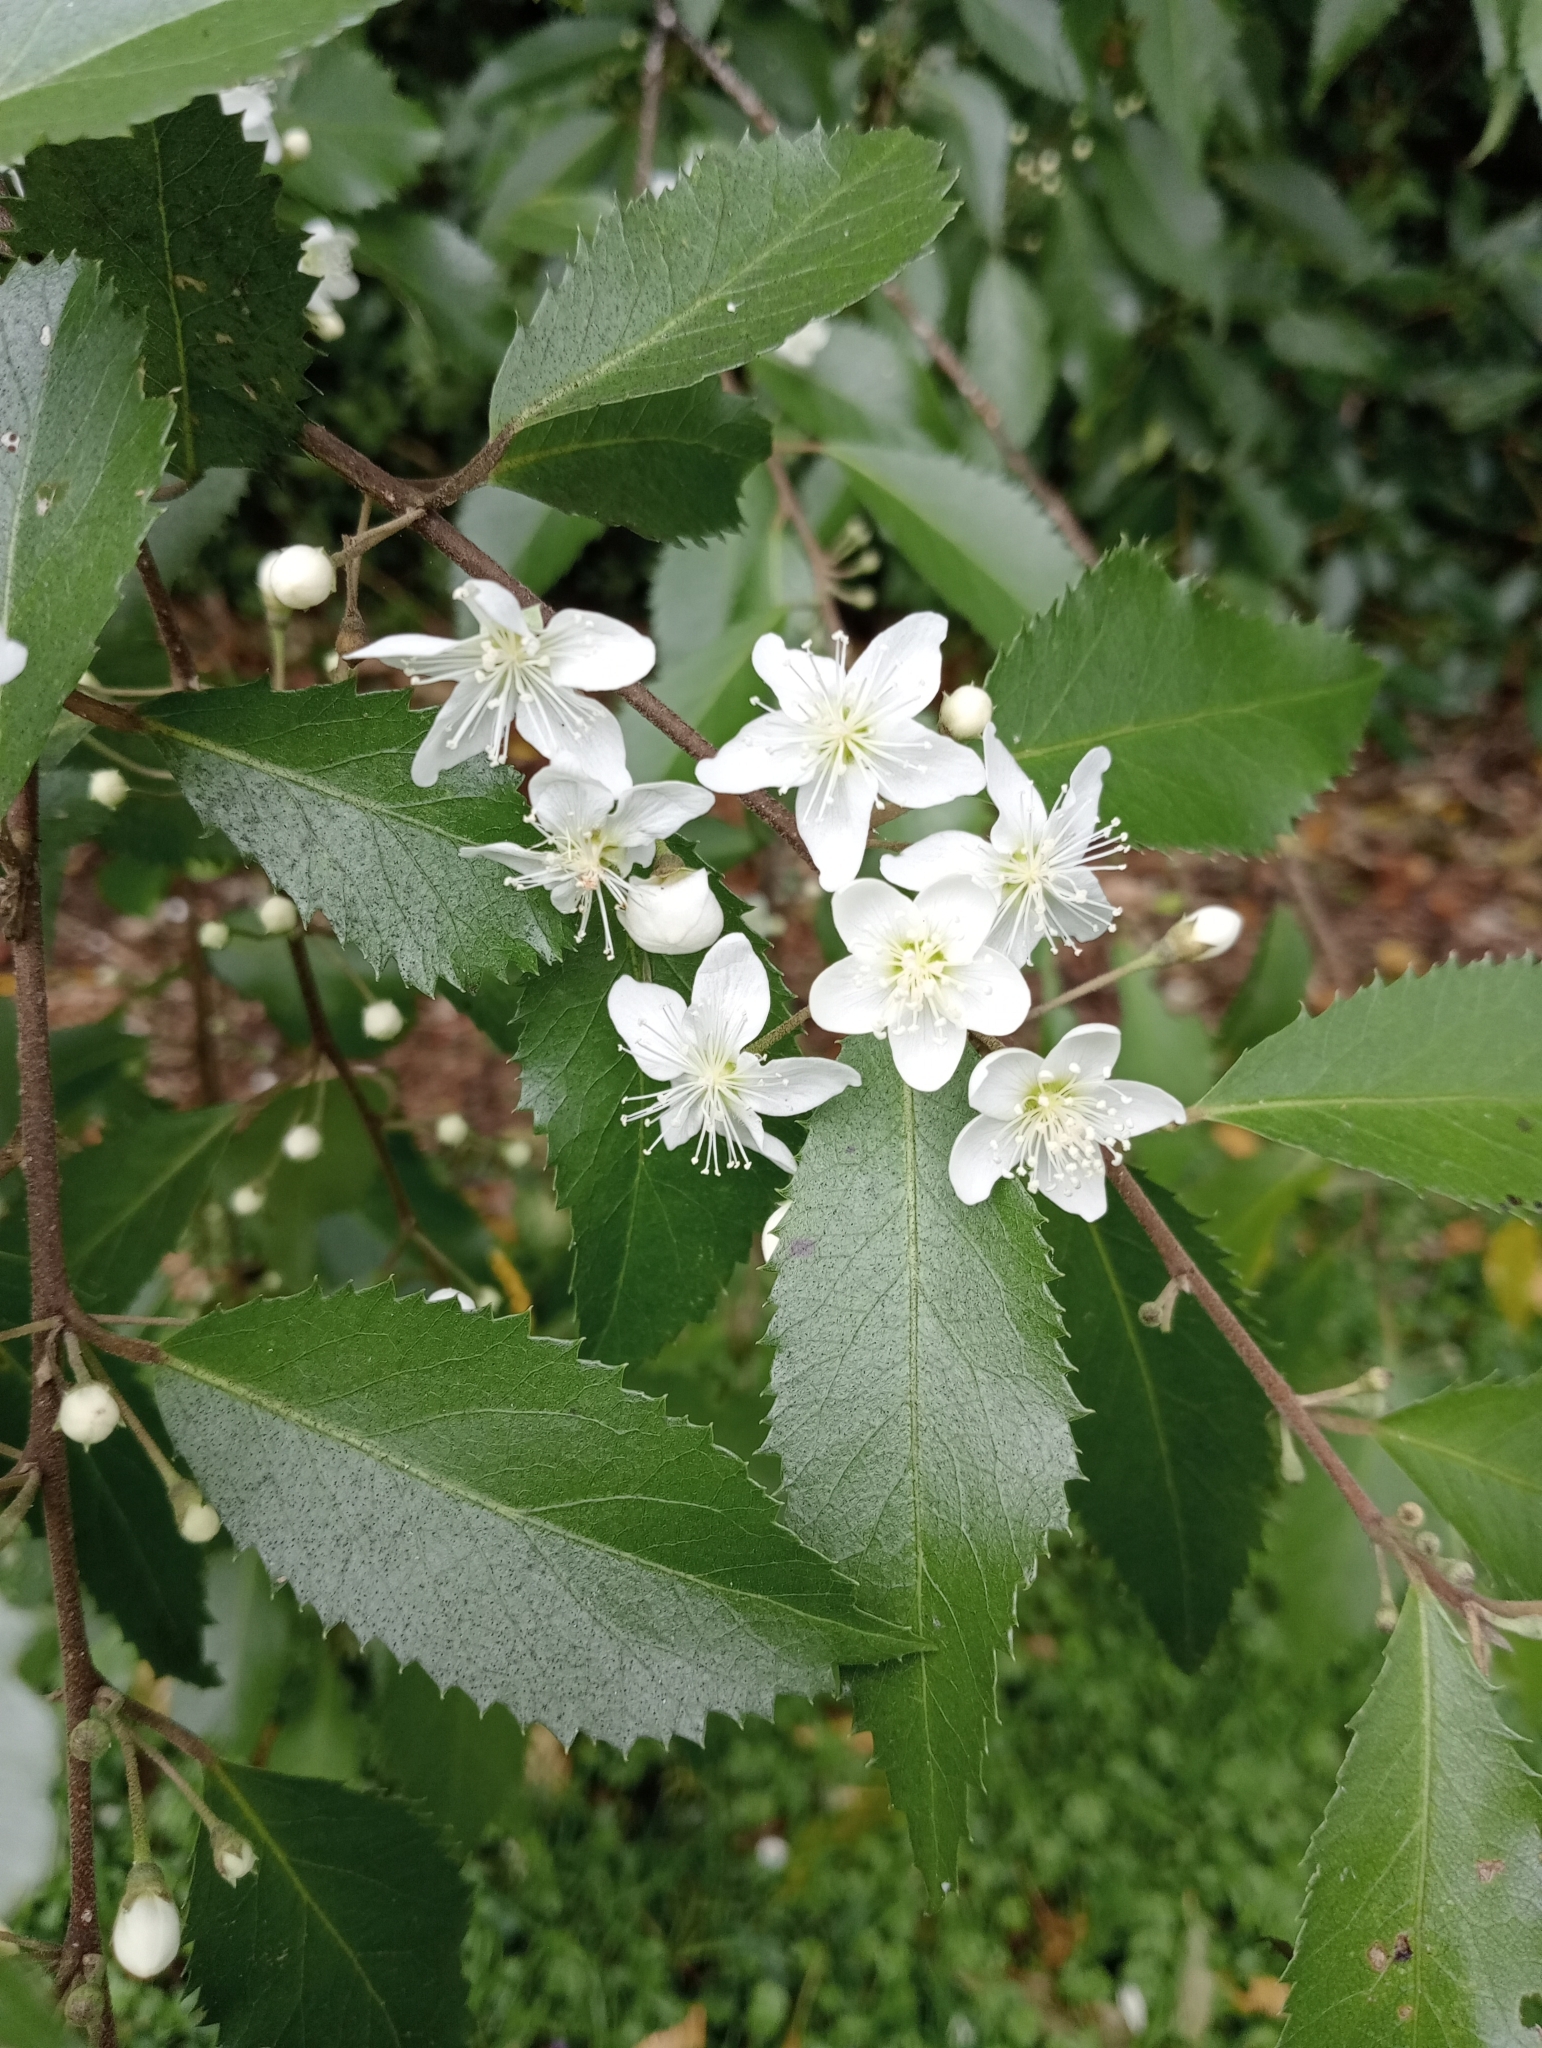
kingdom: Plantae
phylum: Tracheophyta
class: Magnoliopsida
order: Malvales
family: Malvaceae
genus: Hoheria
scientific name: Hoheria sexstylosa
